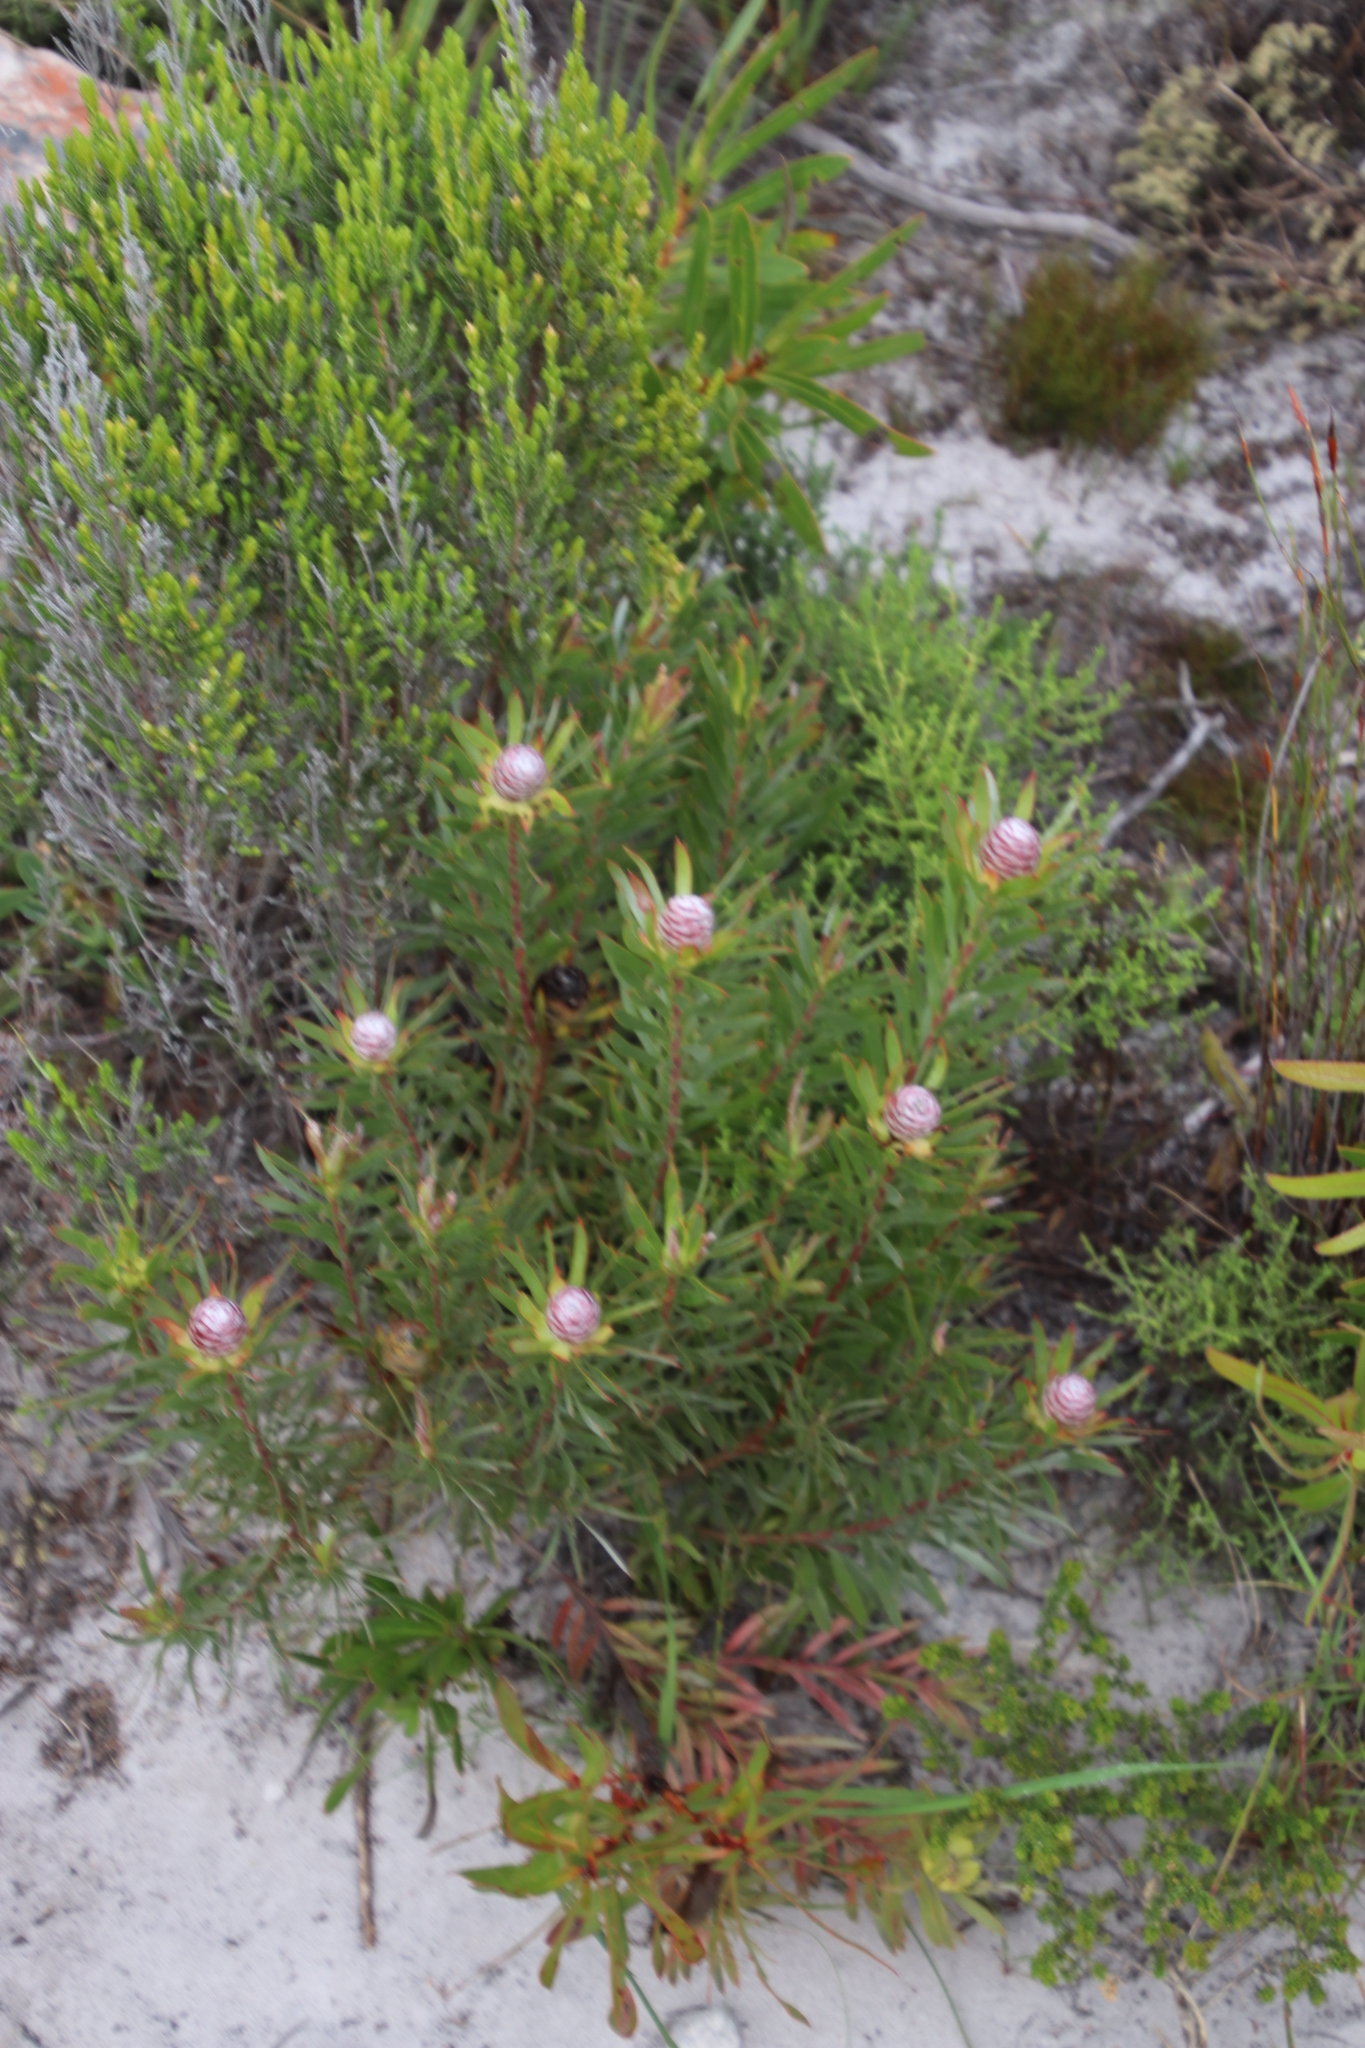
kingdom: Plantae
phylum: Tracheophyta
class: Magnoliopsida
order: Proteales
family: Proteaceae
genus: Leucadendron
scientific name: Leucadendron xanthoconus
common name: Sickle-leaf conebush
